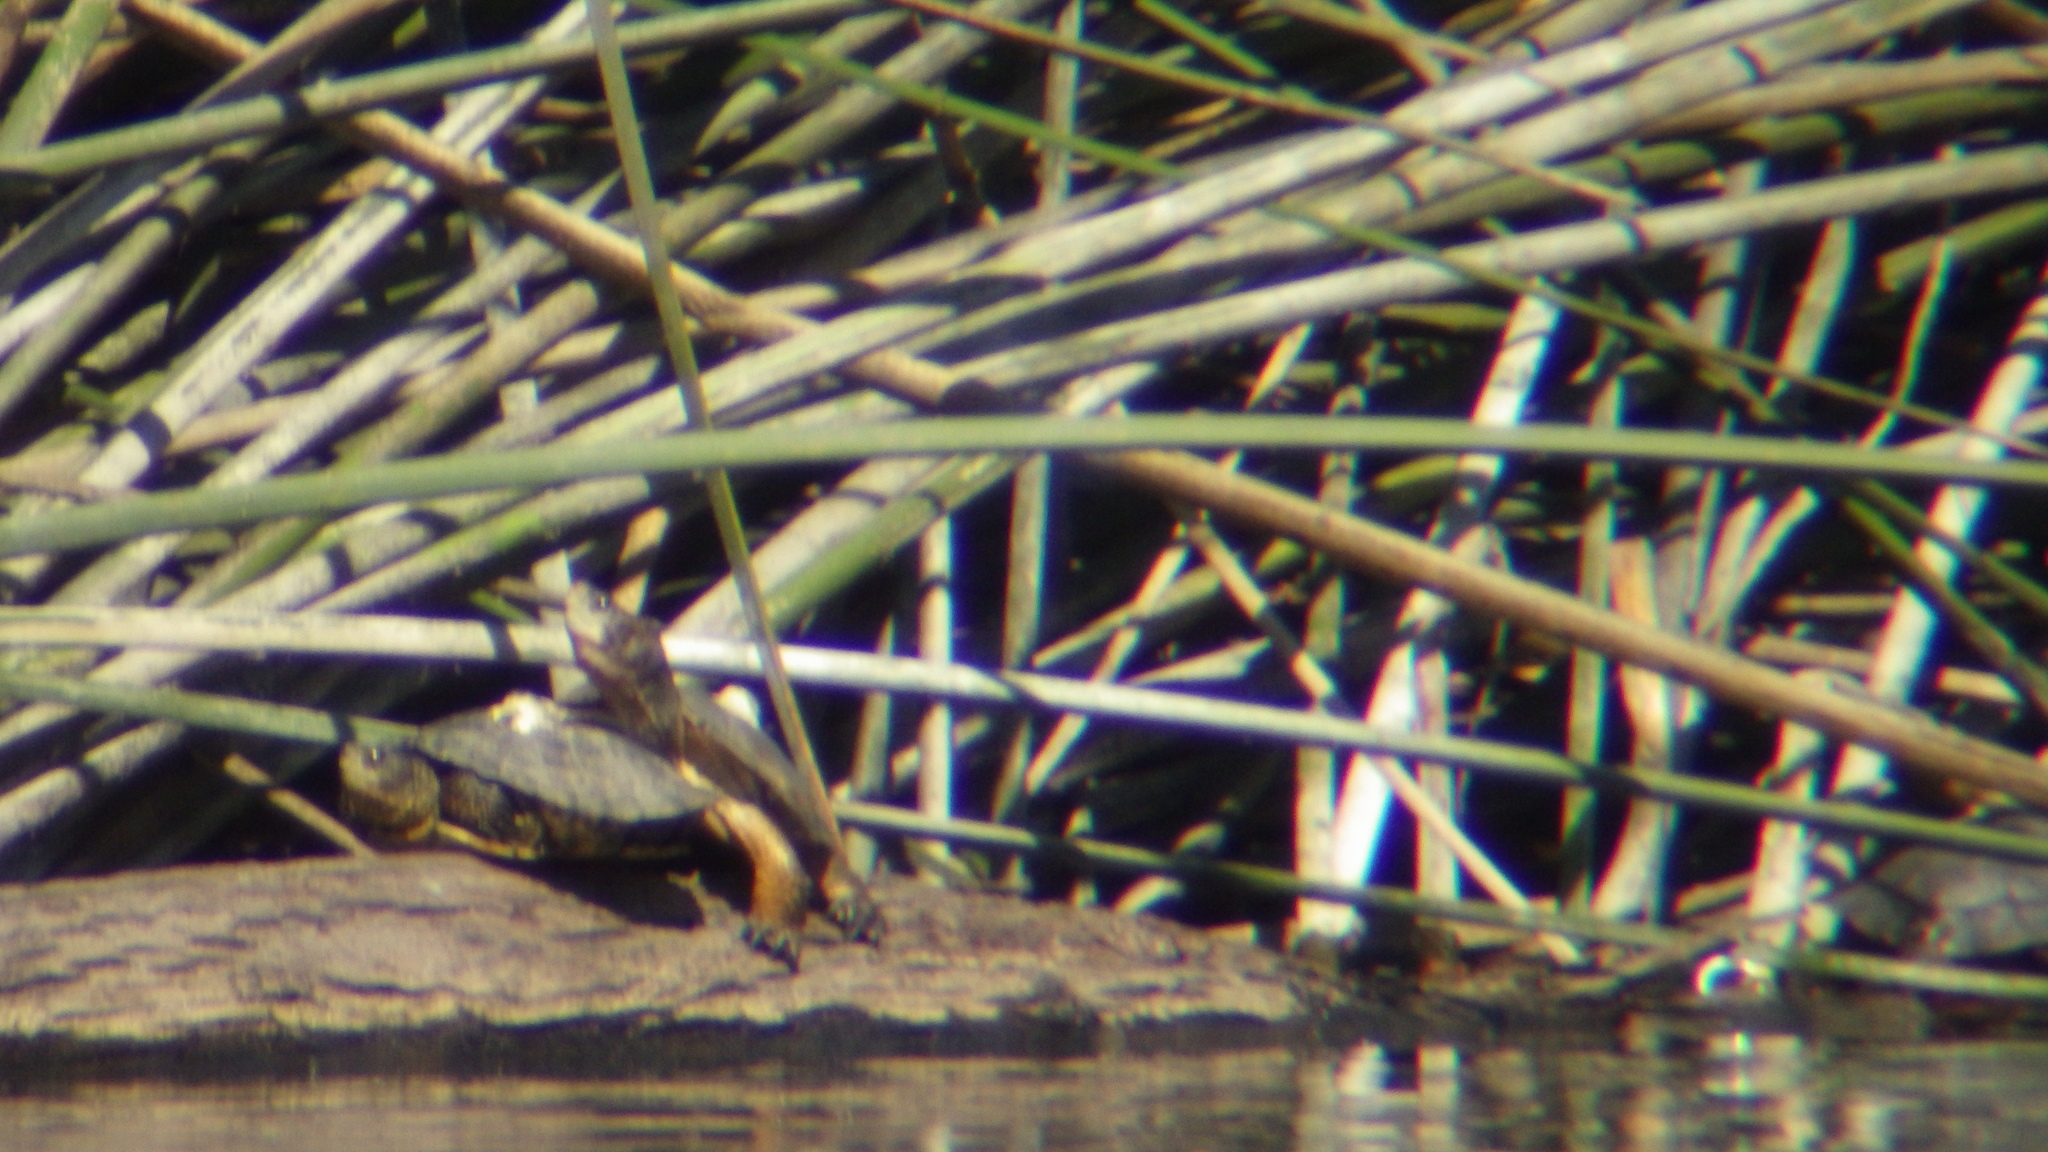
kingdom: Animalia
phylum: Chordata
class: Testudines
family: Emydidae
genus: Actinemys
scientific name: Actinemys marmorata
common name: Western pond turtle
